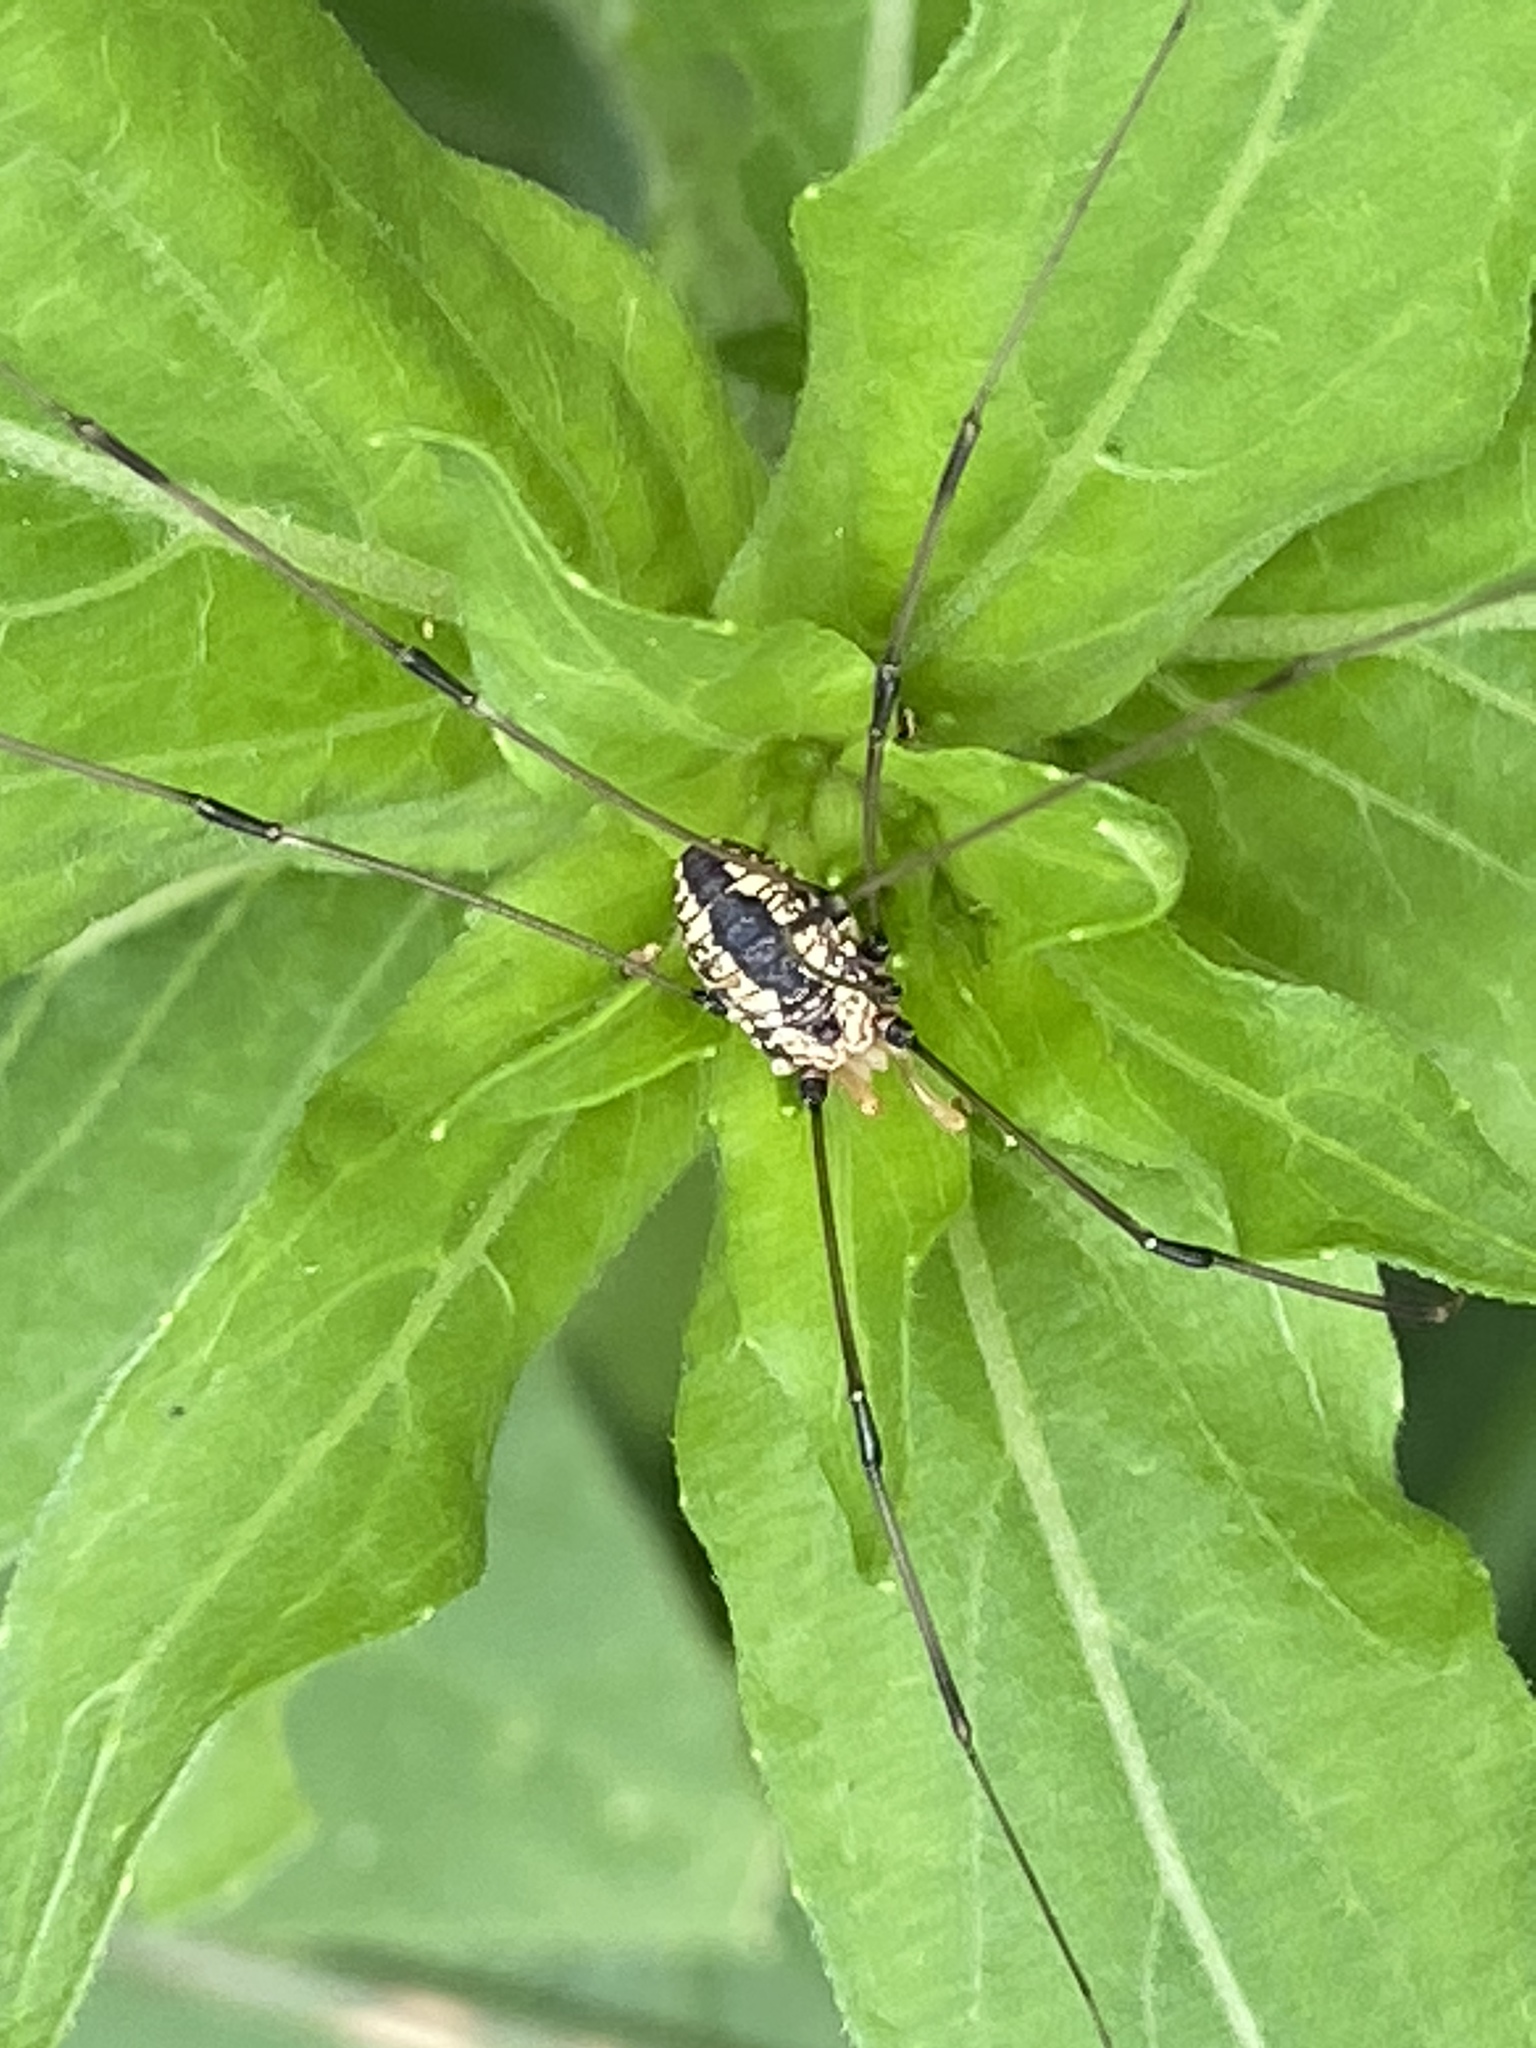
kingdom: Animalia
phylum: Arthropoda
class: Arachnida
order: Opiliones
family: Sclerosomatidae
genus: Leiobunum
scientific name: Leiobunum vittatum
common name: Eastern harvestman
